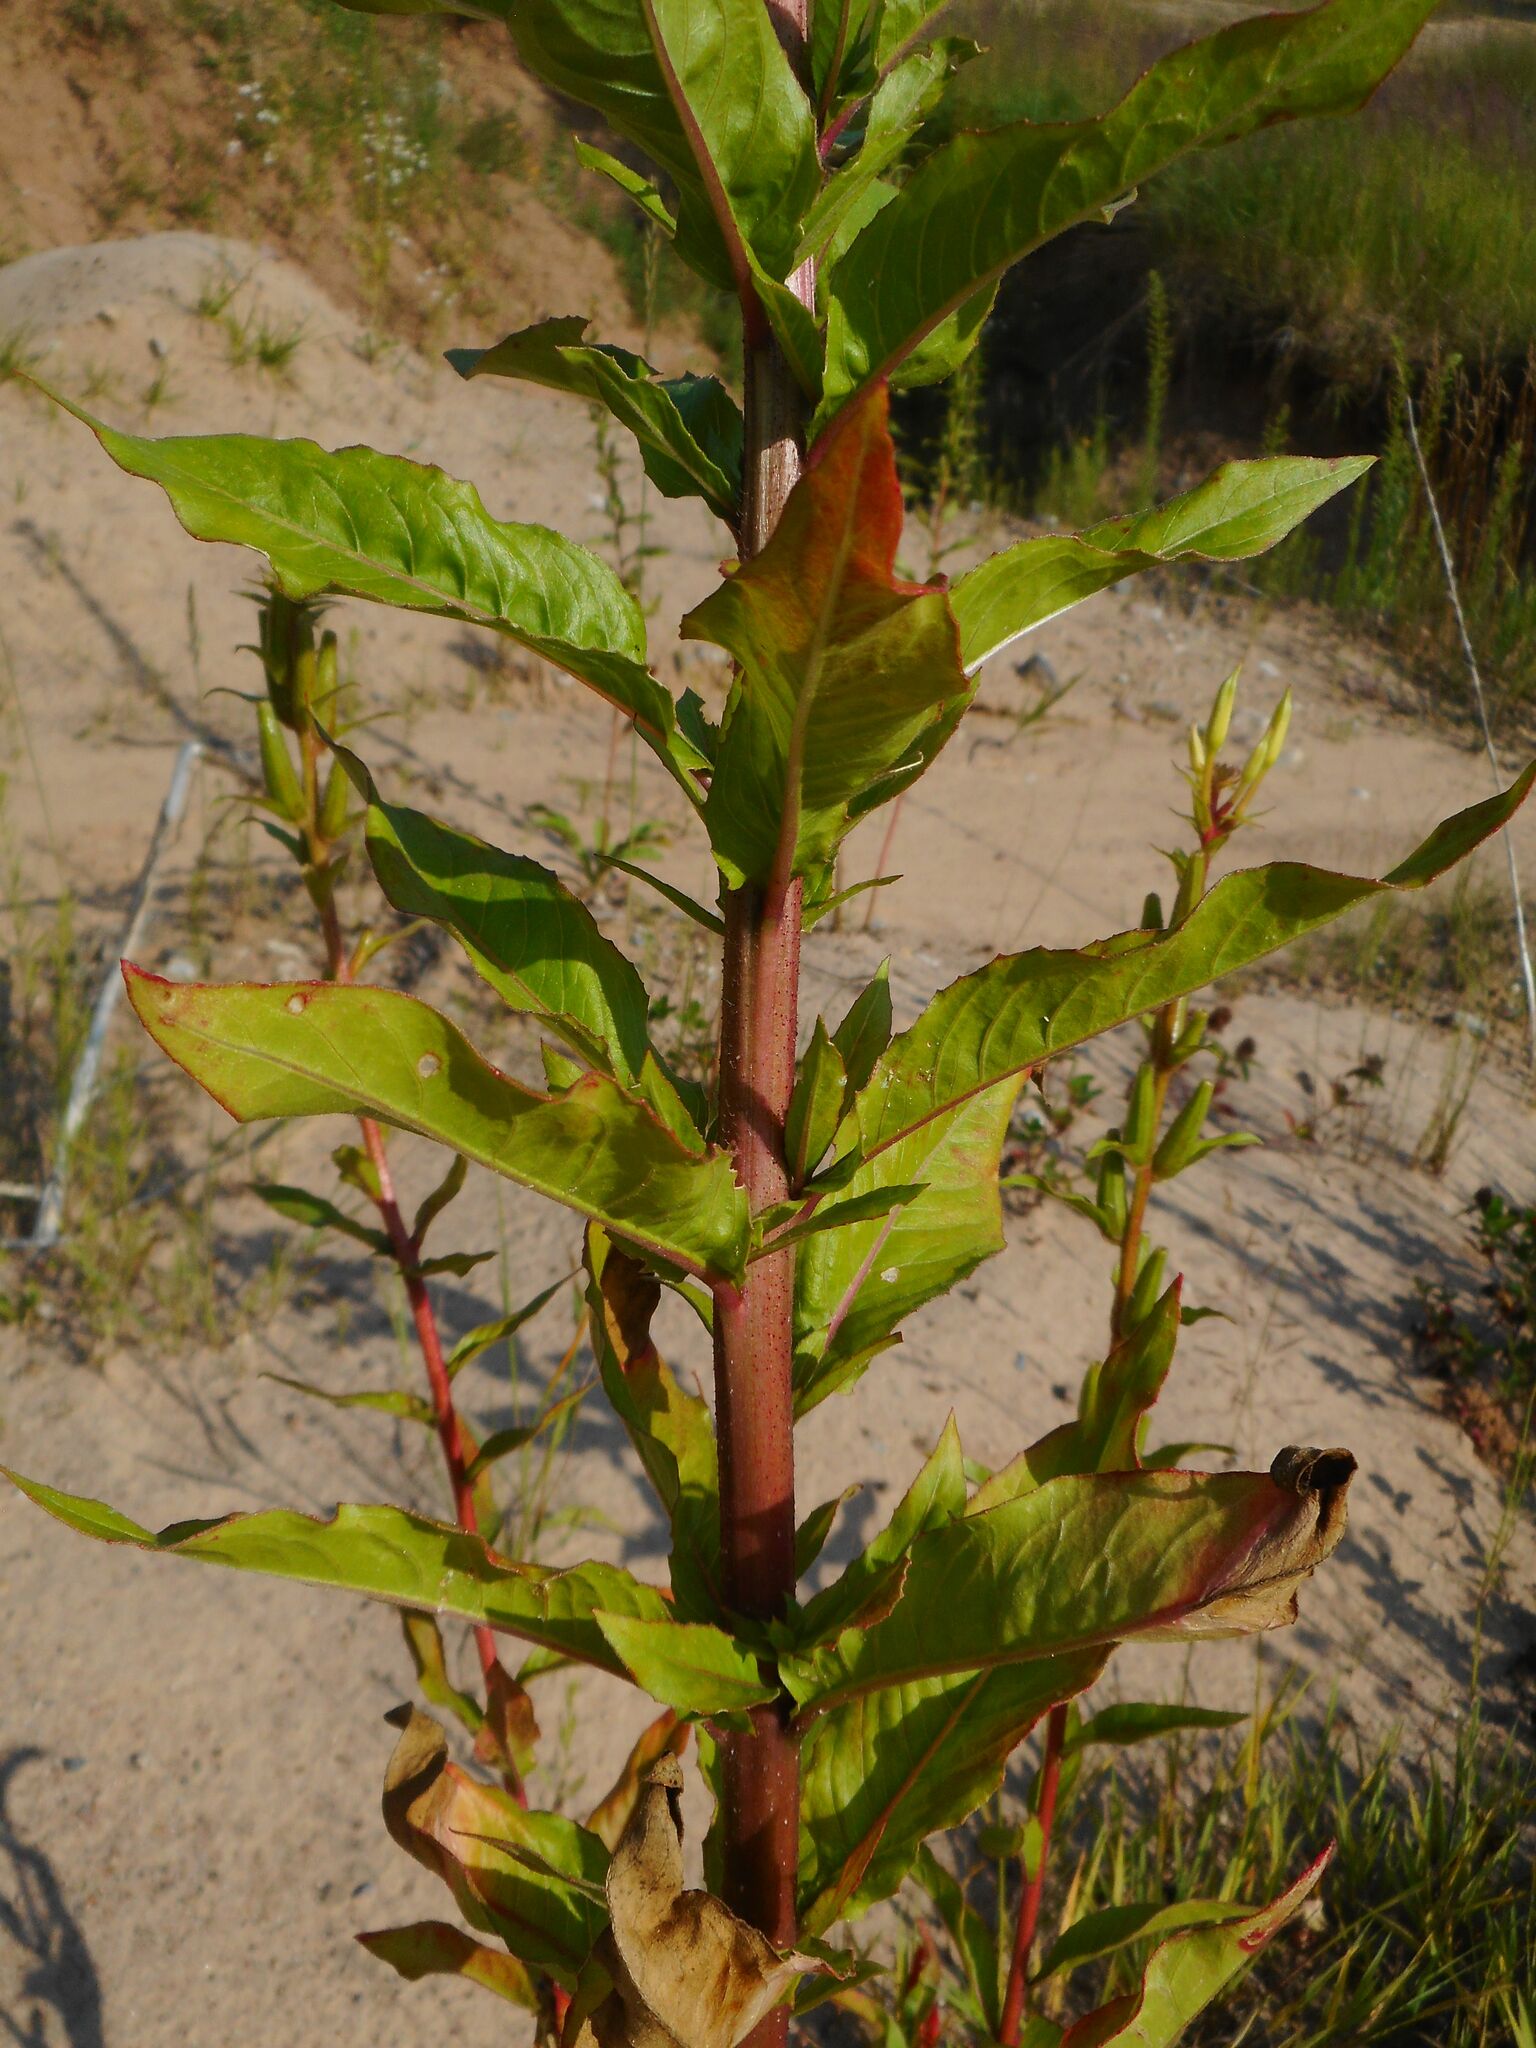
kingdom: Plantae
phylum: Tracheophyta
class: Magnoliopsida
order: Myrtales
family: Onagraceae
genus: Oenothera
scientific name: Oenothera rubricaulis
